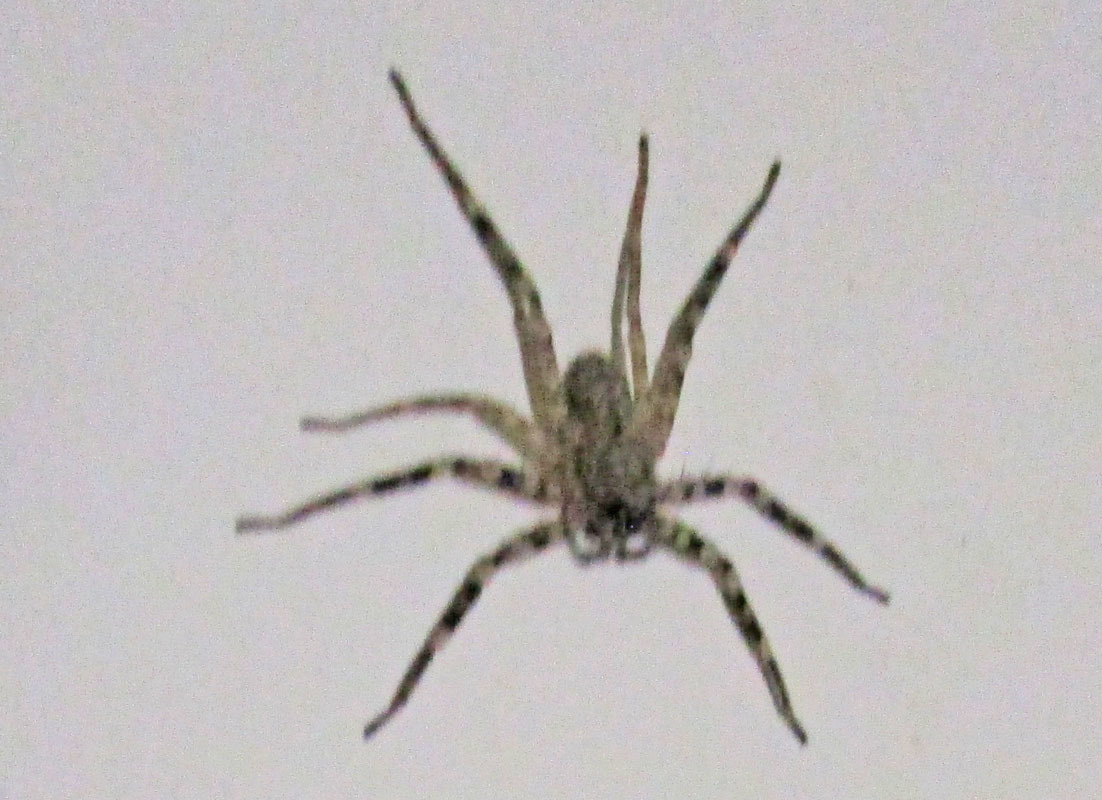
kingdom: Animalia
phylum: Arthropoda
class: Arachnida
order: Araneae
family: Selenopidae
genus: Selenops
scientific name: Selenops
